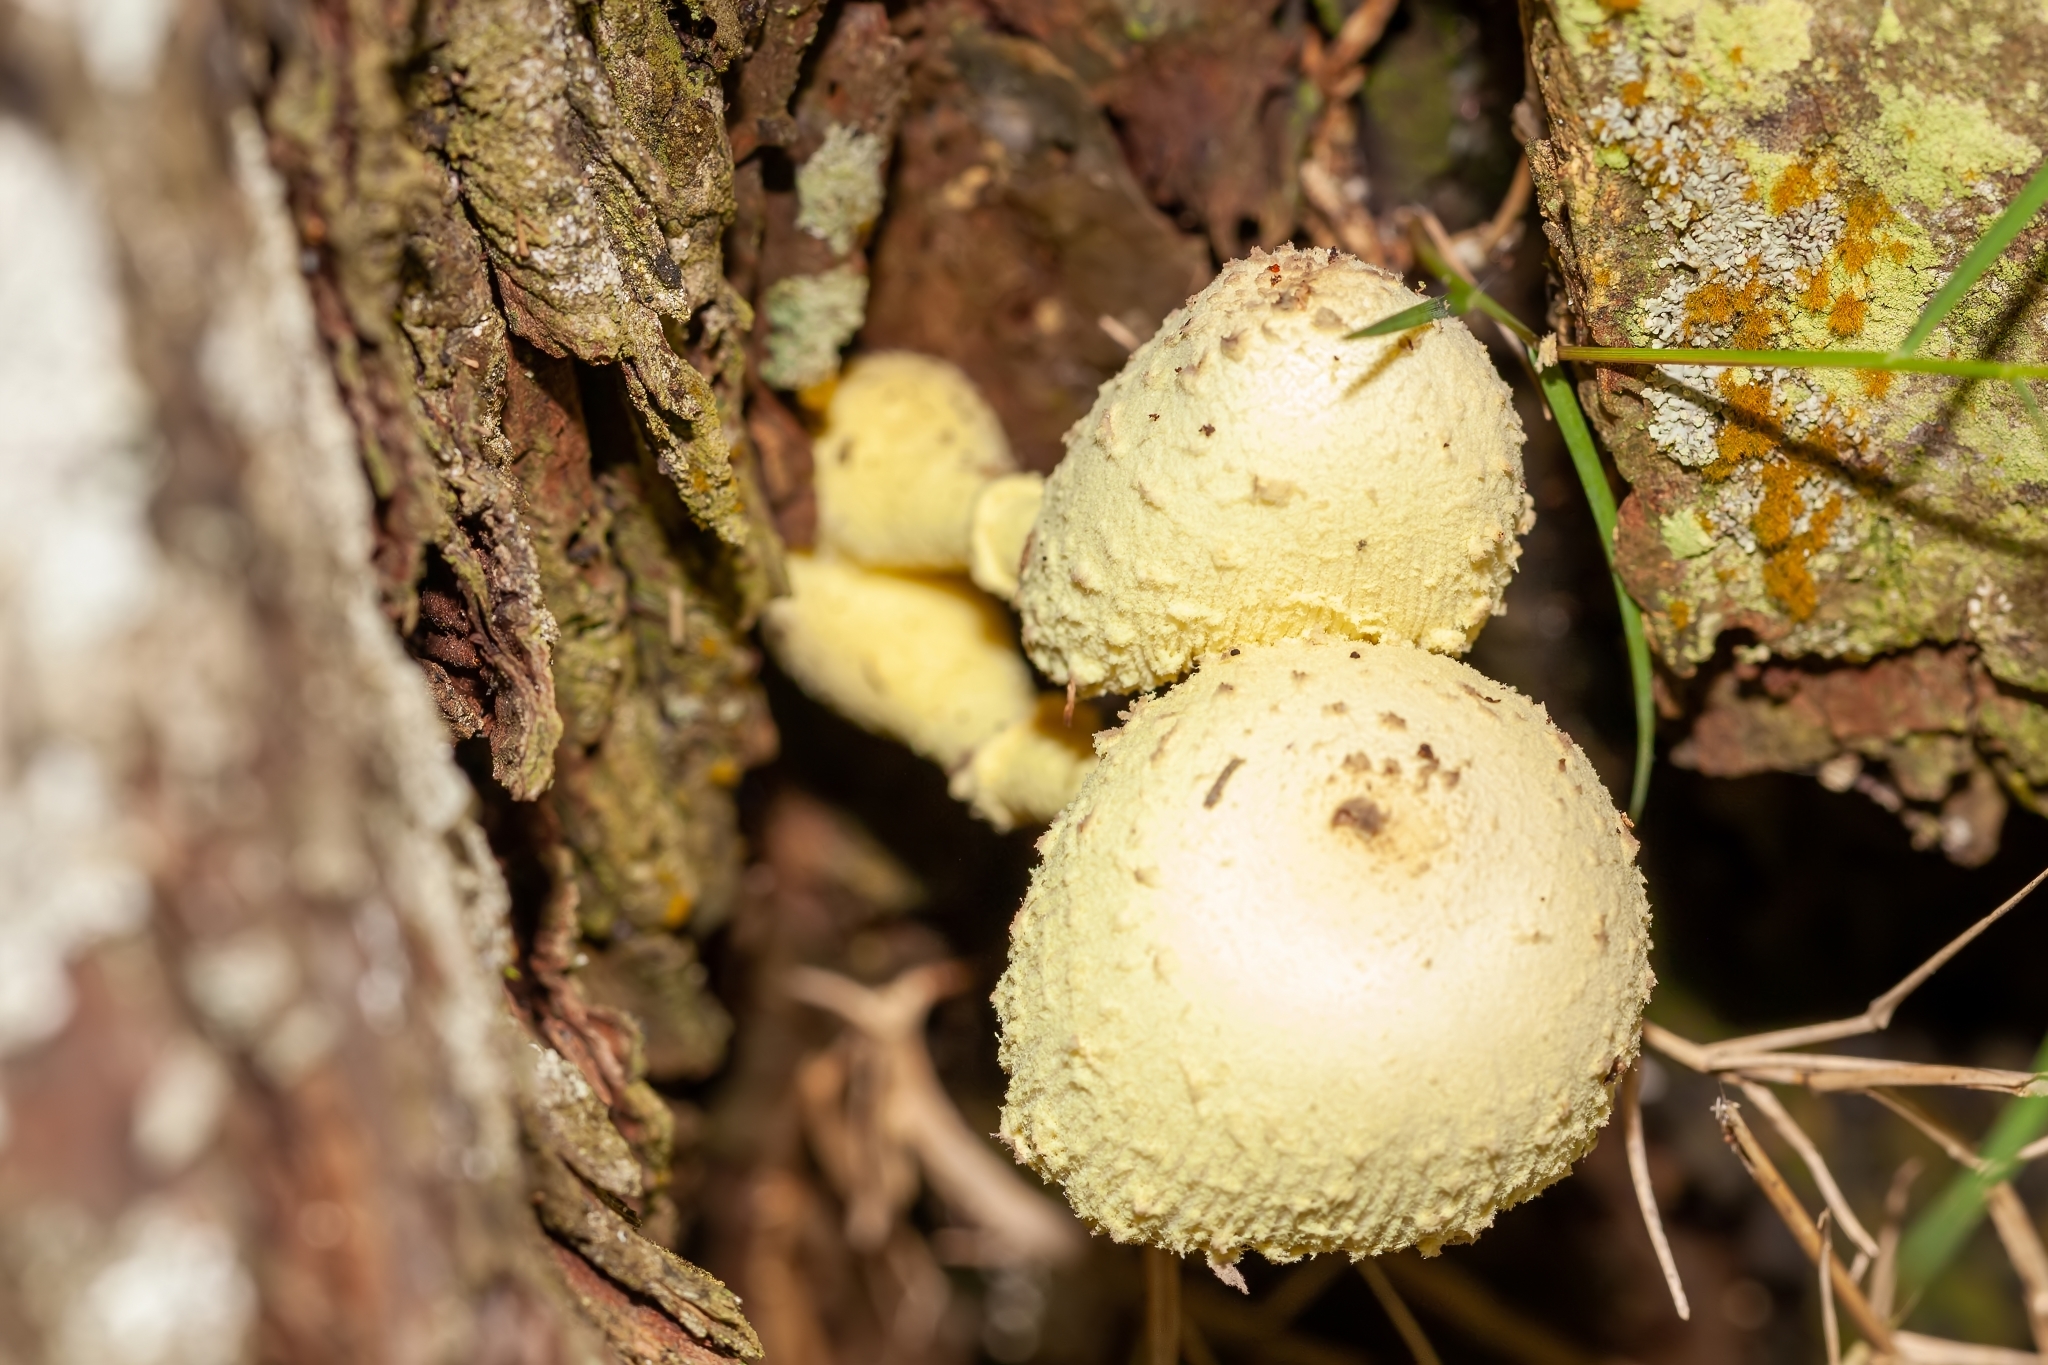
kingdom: Fungi
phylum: Basidiomycota
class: Agaricomycetes
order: Agaricales
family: Agaricaceae
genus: Leucocoprinus
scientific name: Leucocoprinus birnbaumii
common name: Plantpot dapperling
